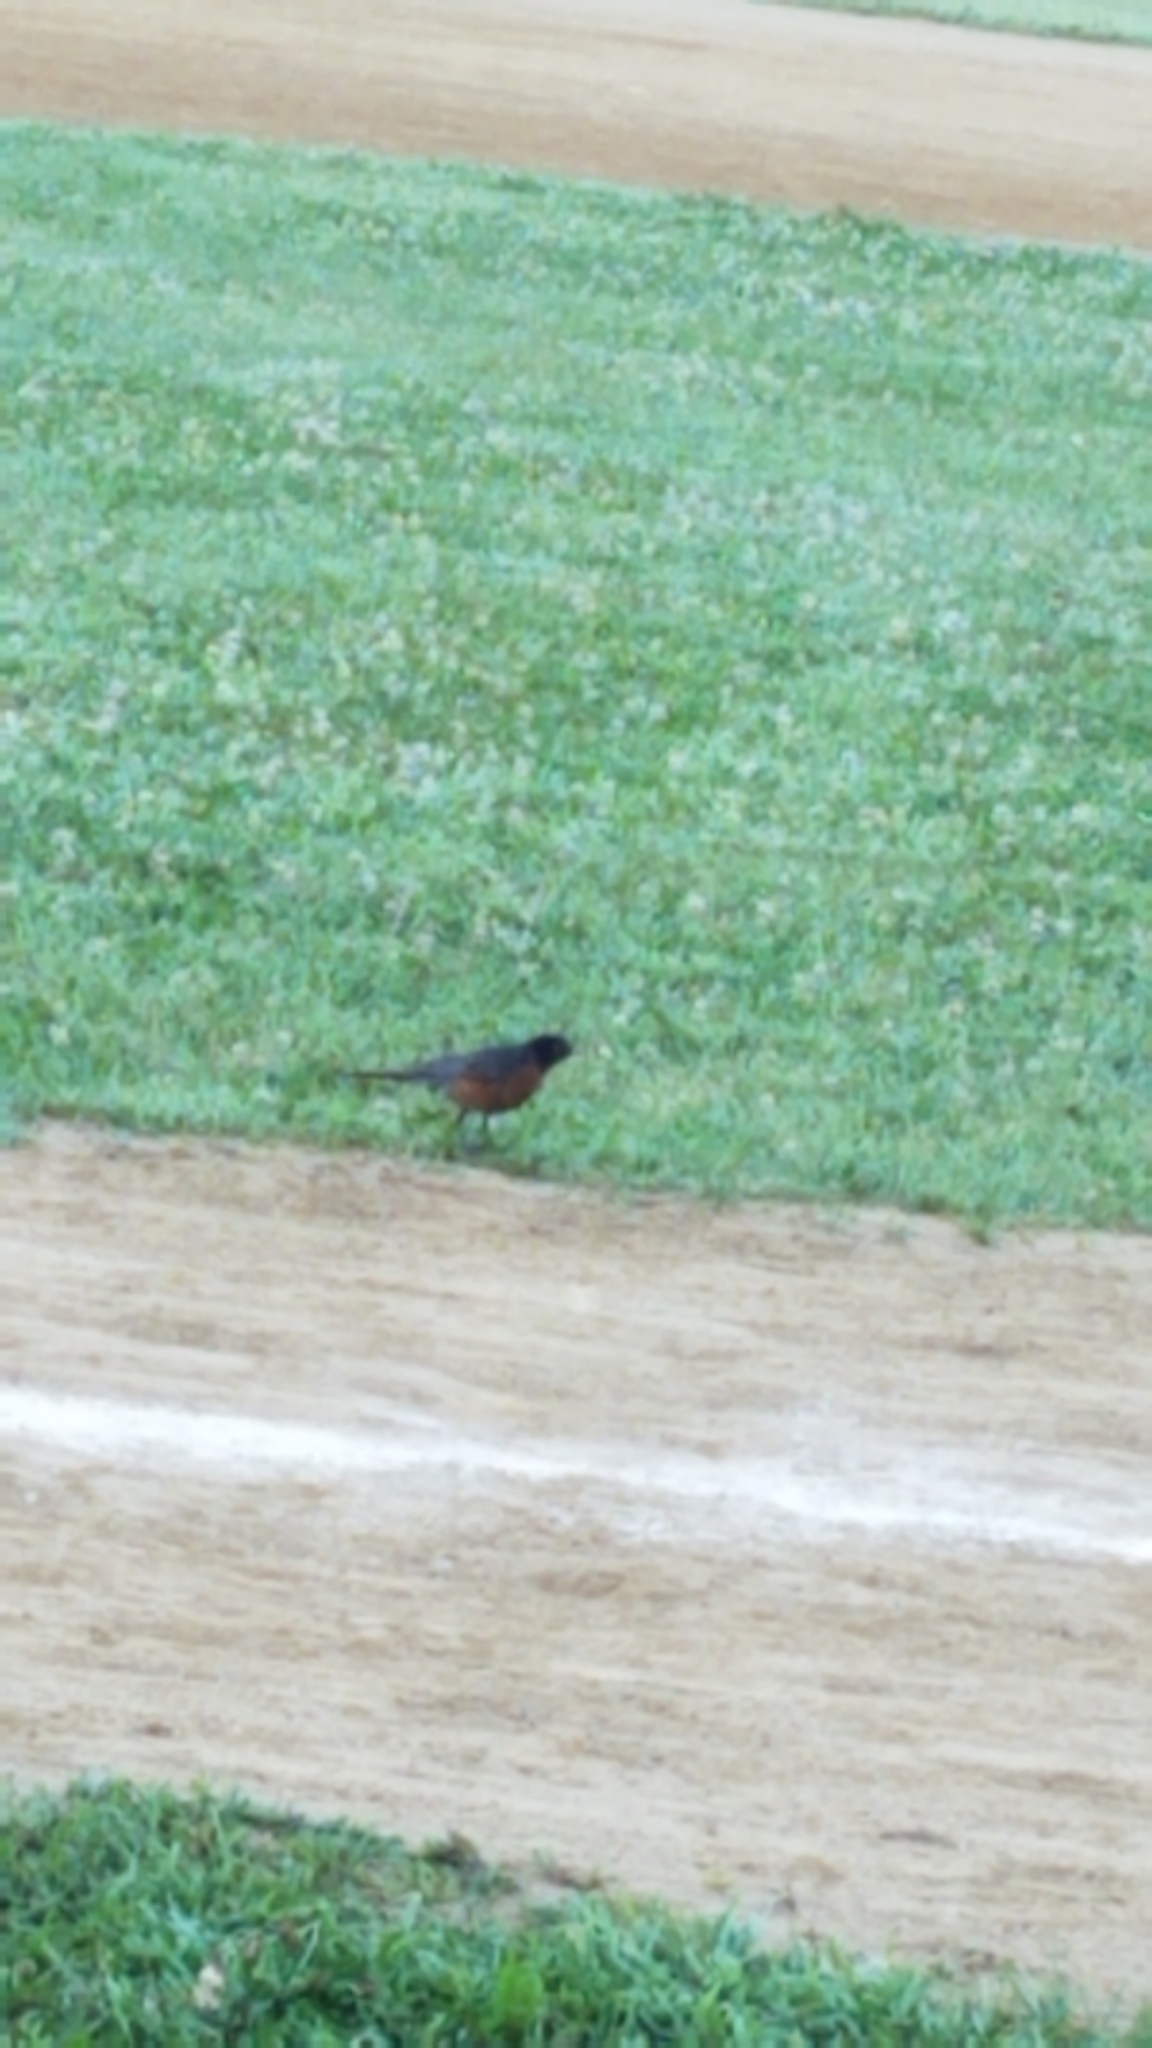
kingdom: Animalia
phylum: Chordata
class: Aves
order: Passeriformes
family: Turdidae
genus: Turdus
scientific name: Turdus migratorius
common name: American robin
